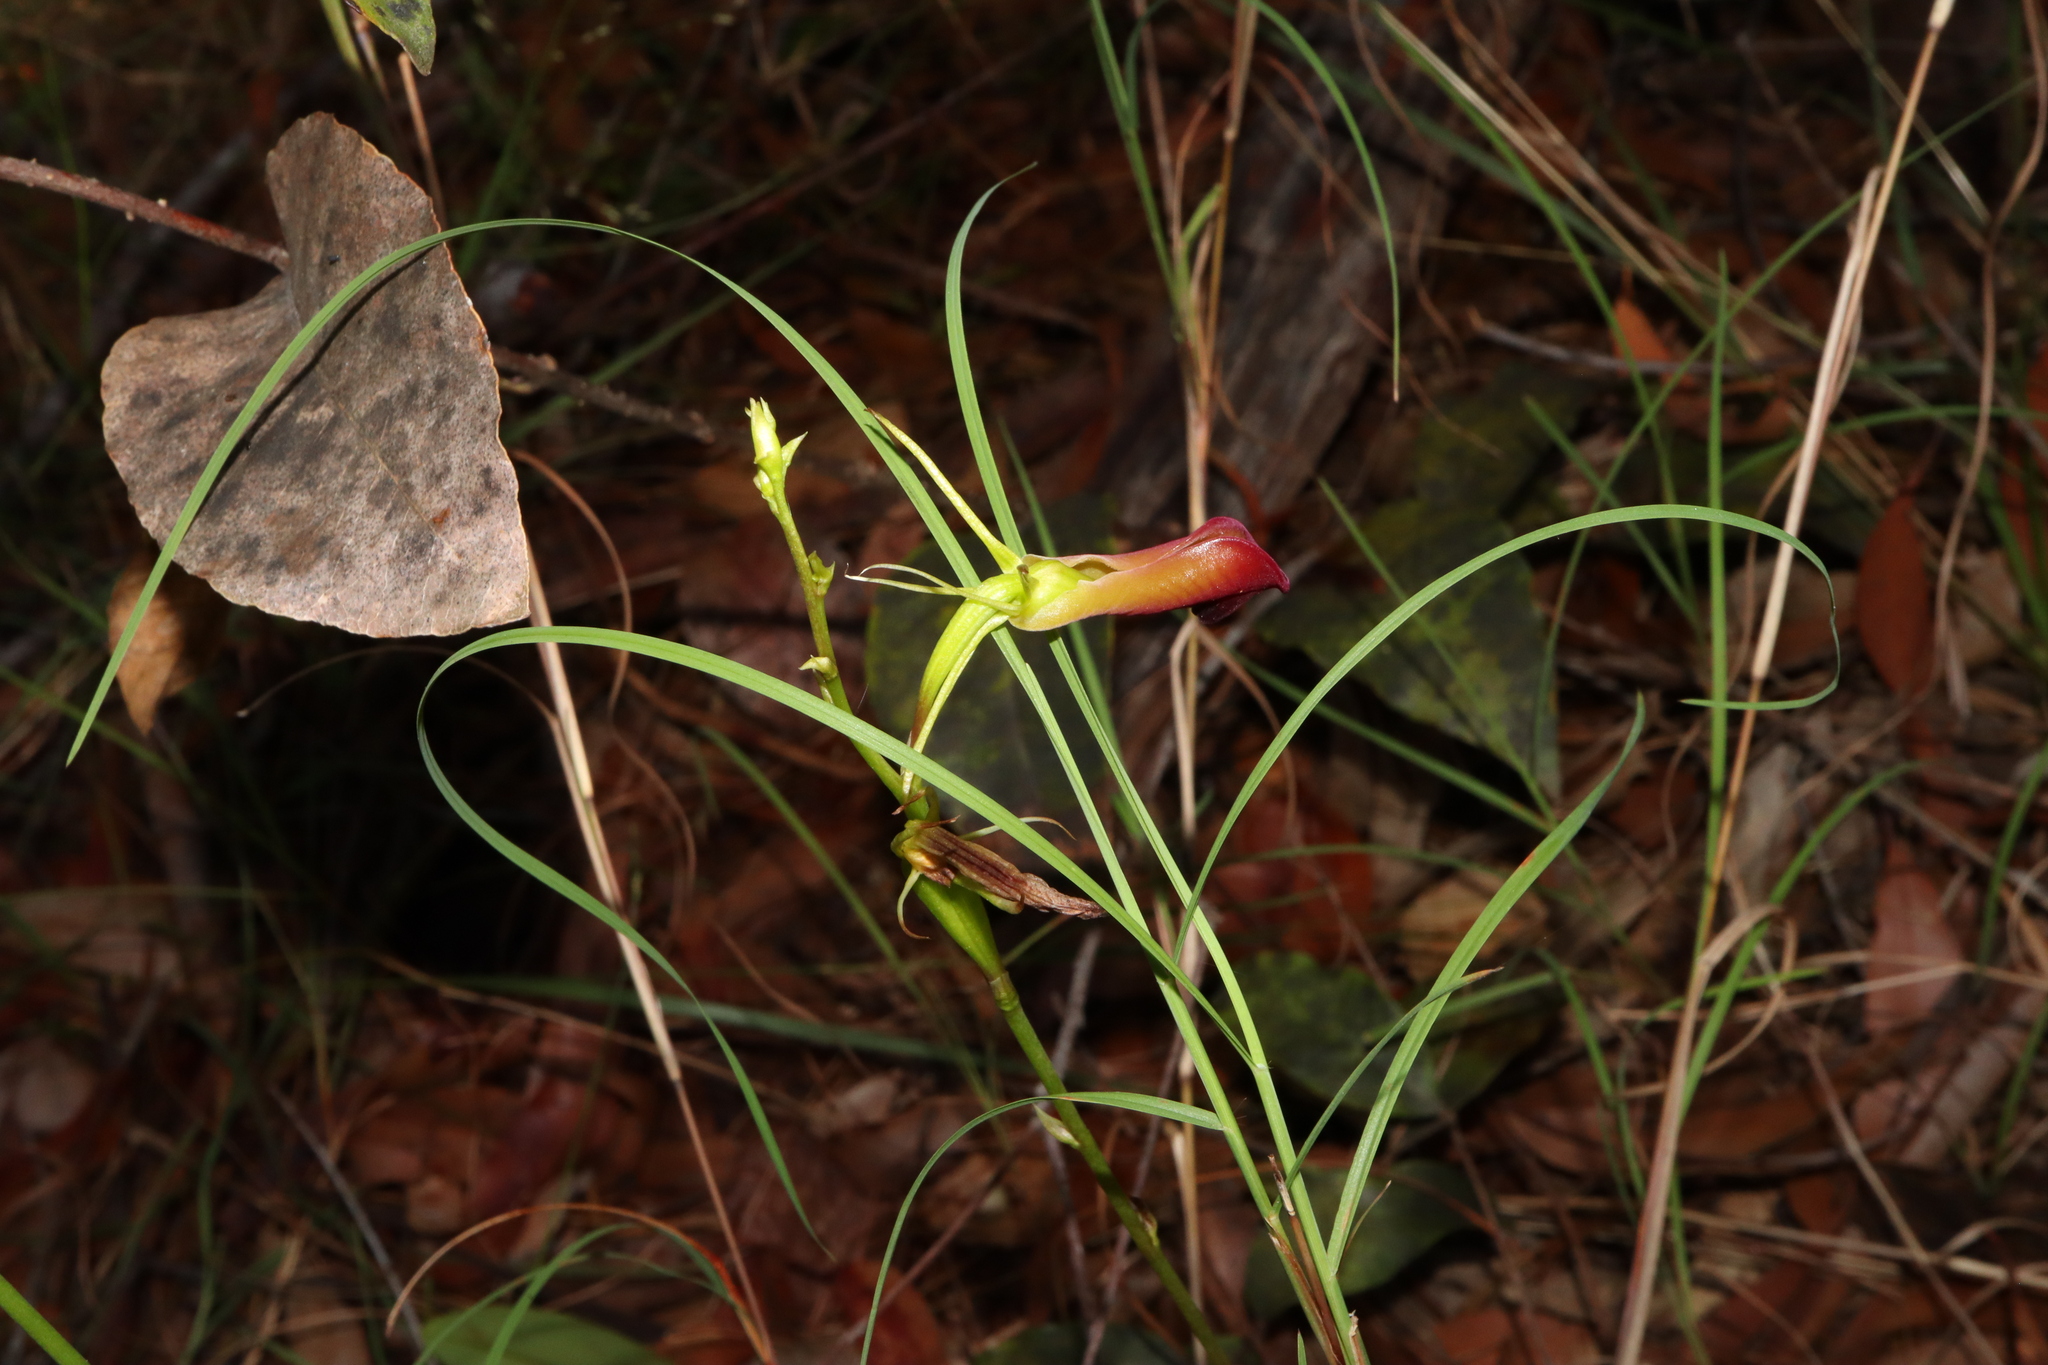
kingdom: Plantae
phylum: Tracheophyta
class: Liliopsida
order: Asparagales
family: Orchidaceae
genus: Cryptostylis
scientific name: Cryptostylis subulata
